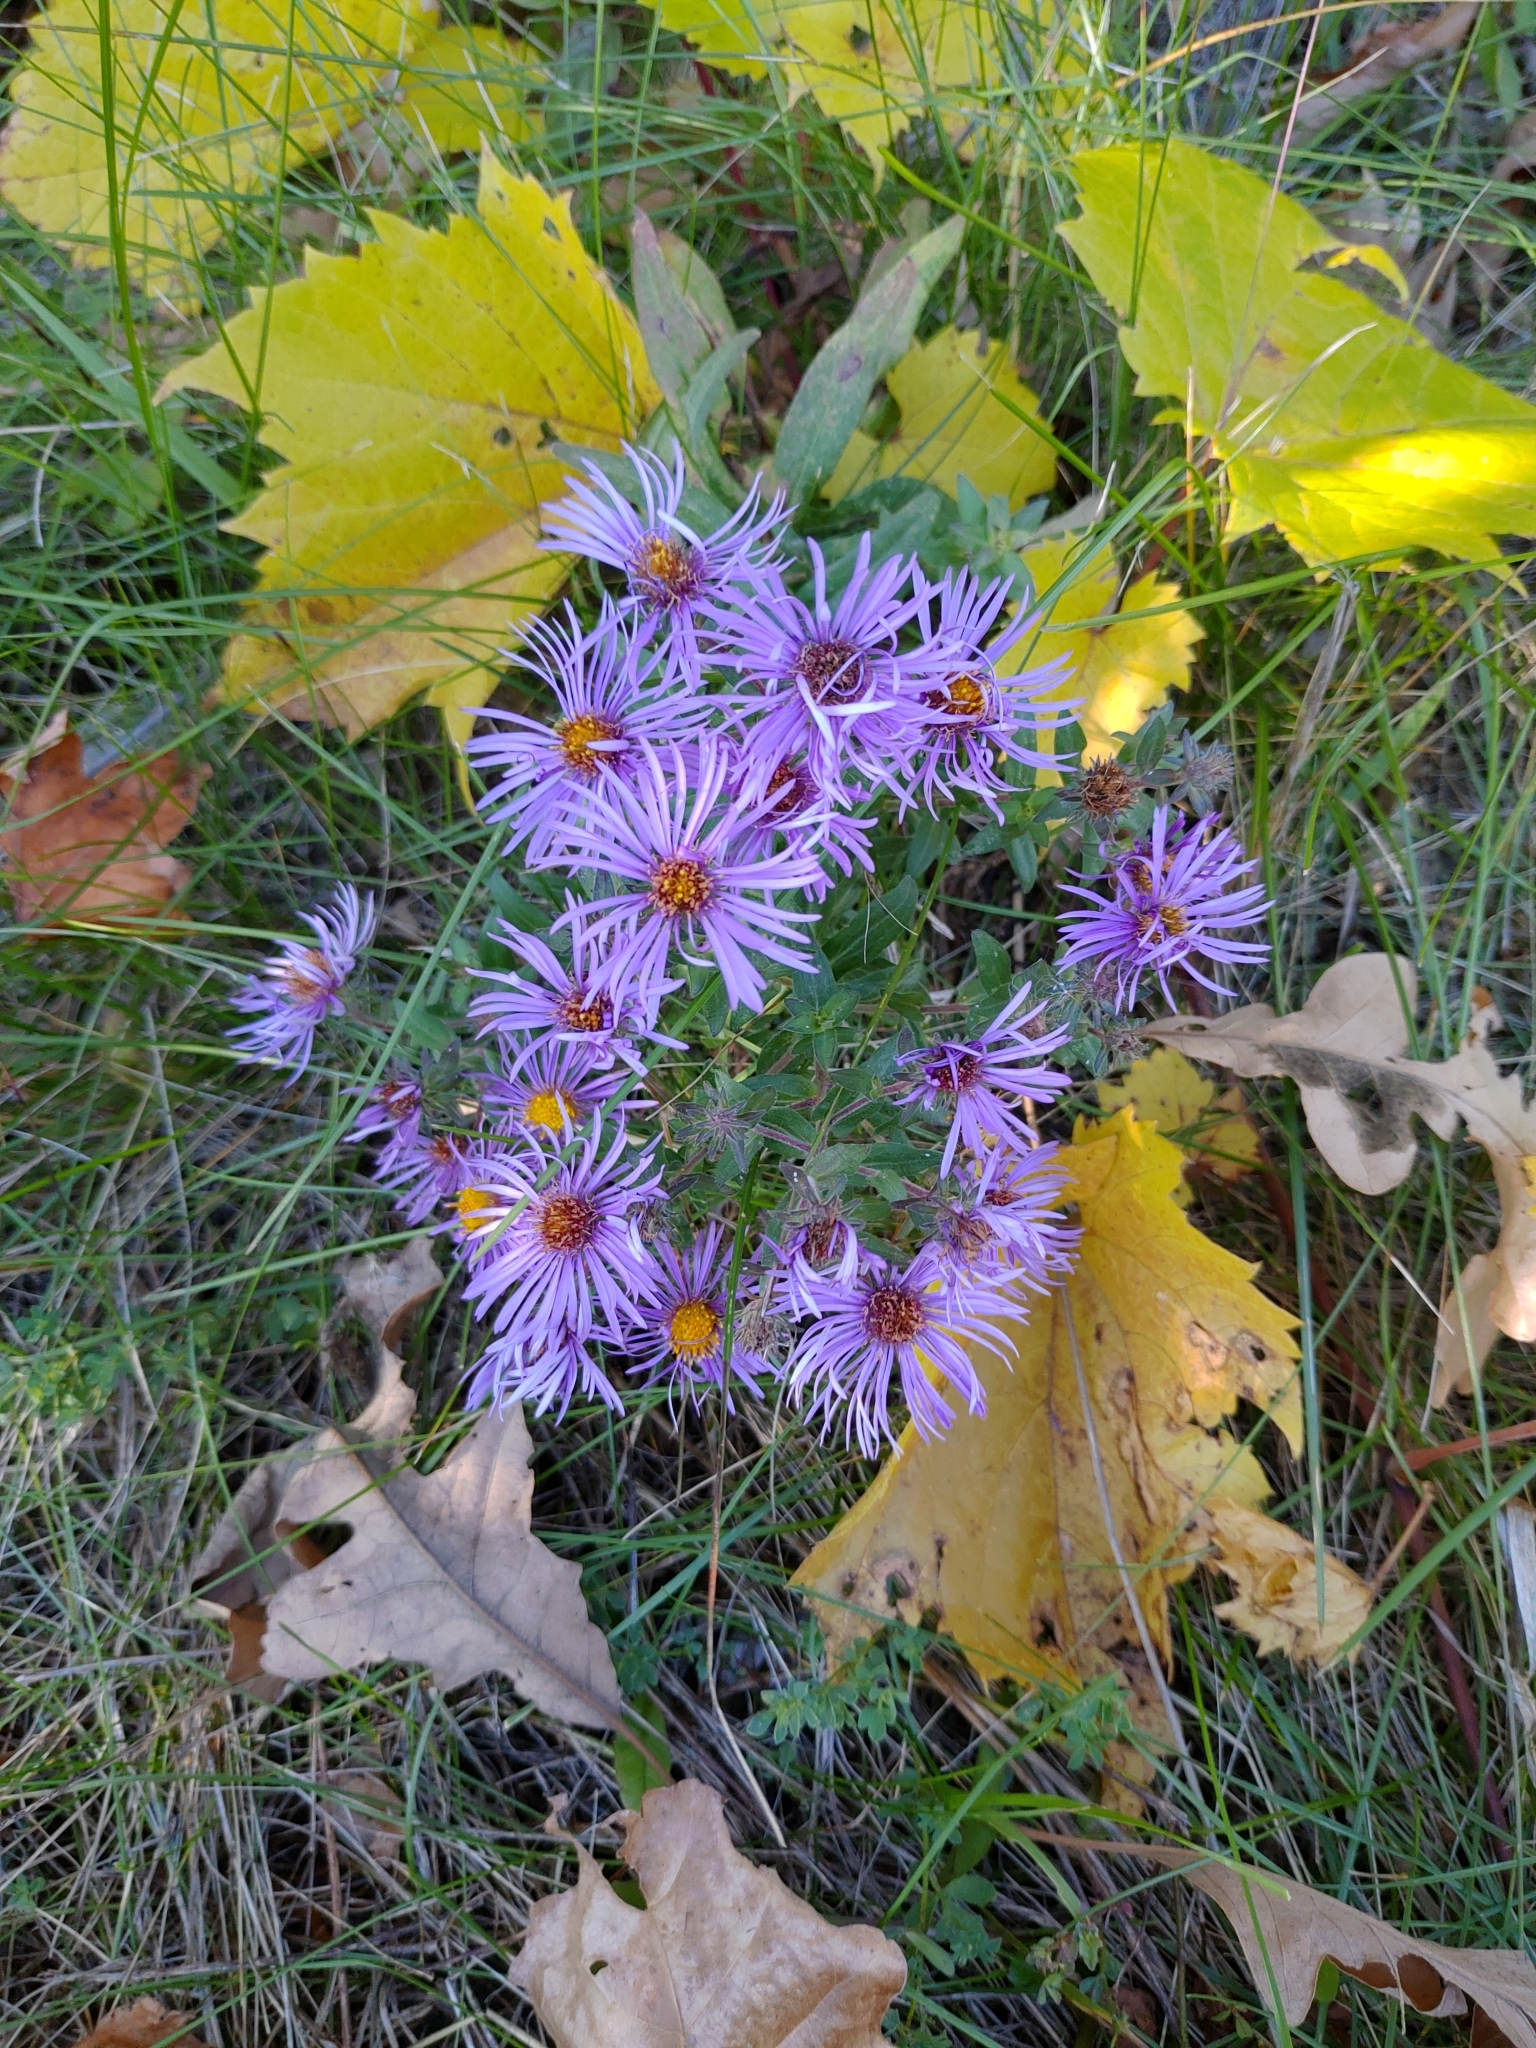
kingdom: Plantae
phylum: Tracheophyta
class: Magnoliopsida
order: Asterales
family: Asteraceae
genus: Symphyotrichum
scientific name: Symphyotrichum novae-angliae
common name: Michaelmas daisy
